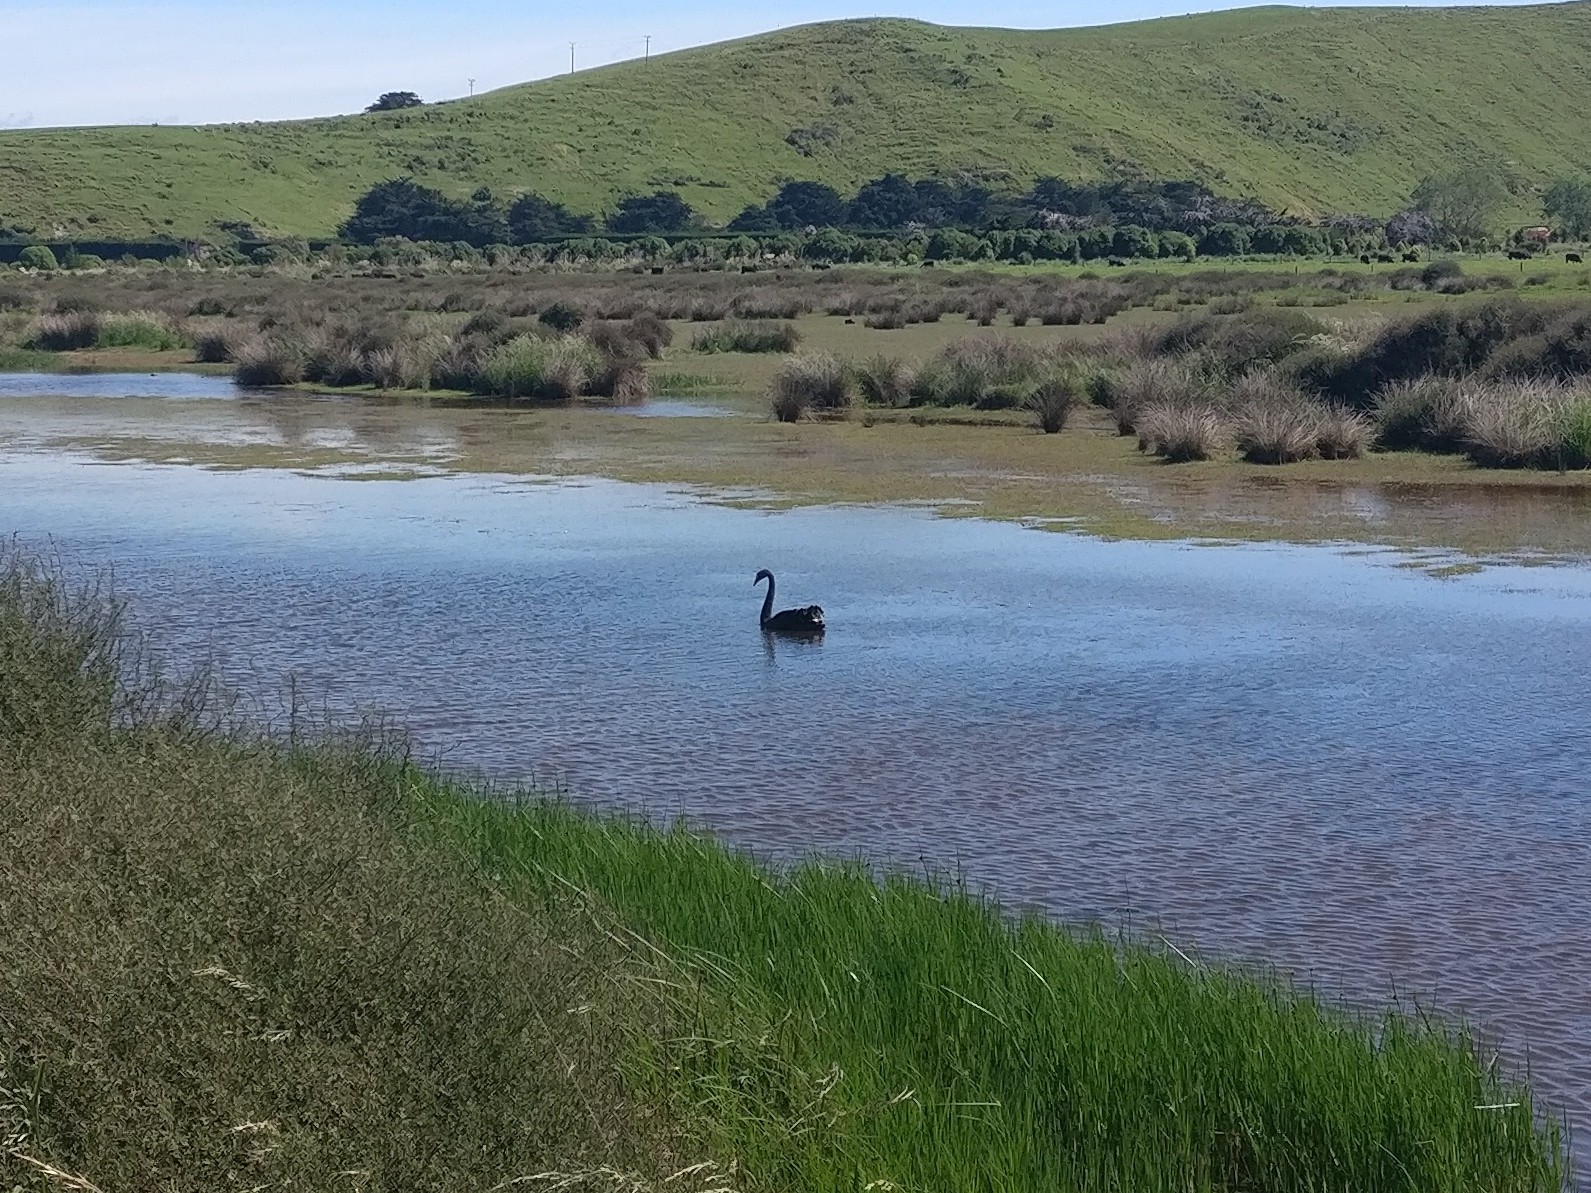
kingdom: Animalia
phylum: Chordata
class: Aves
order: Anseriformes
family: Anatidae
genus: Cygnus
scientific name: Cygnus atratus
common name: Black swan
